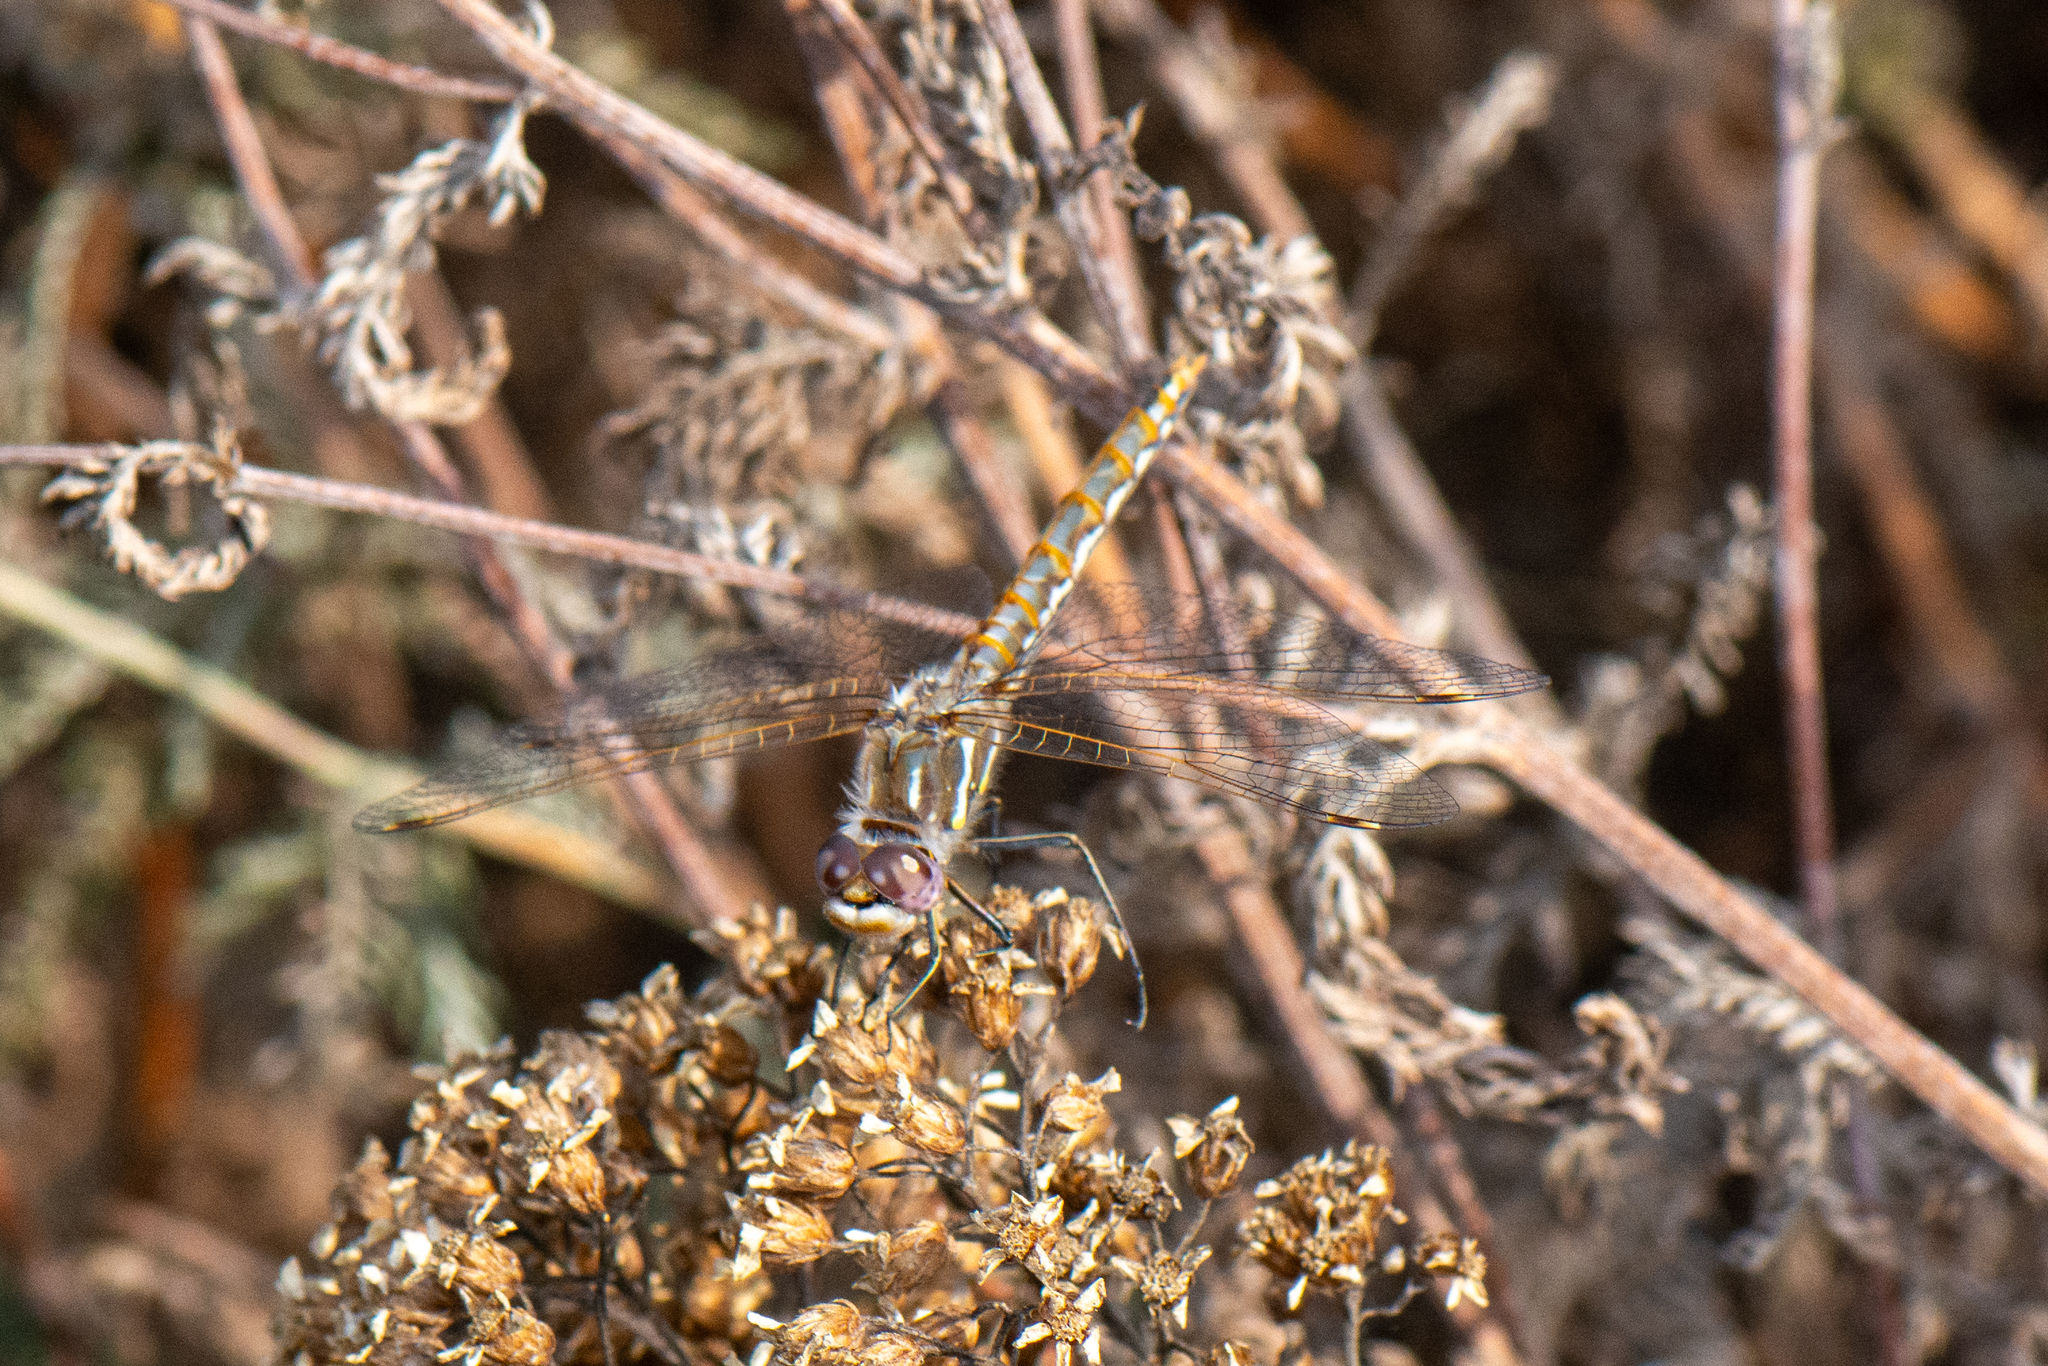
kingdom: Animalia
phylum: Arthropoda
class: Insecta
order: Odonata
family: Libellulidae
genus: Sympetrum
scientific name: Sympetrum corruptum
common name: Variegated meadowhawk
